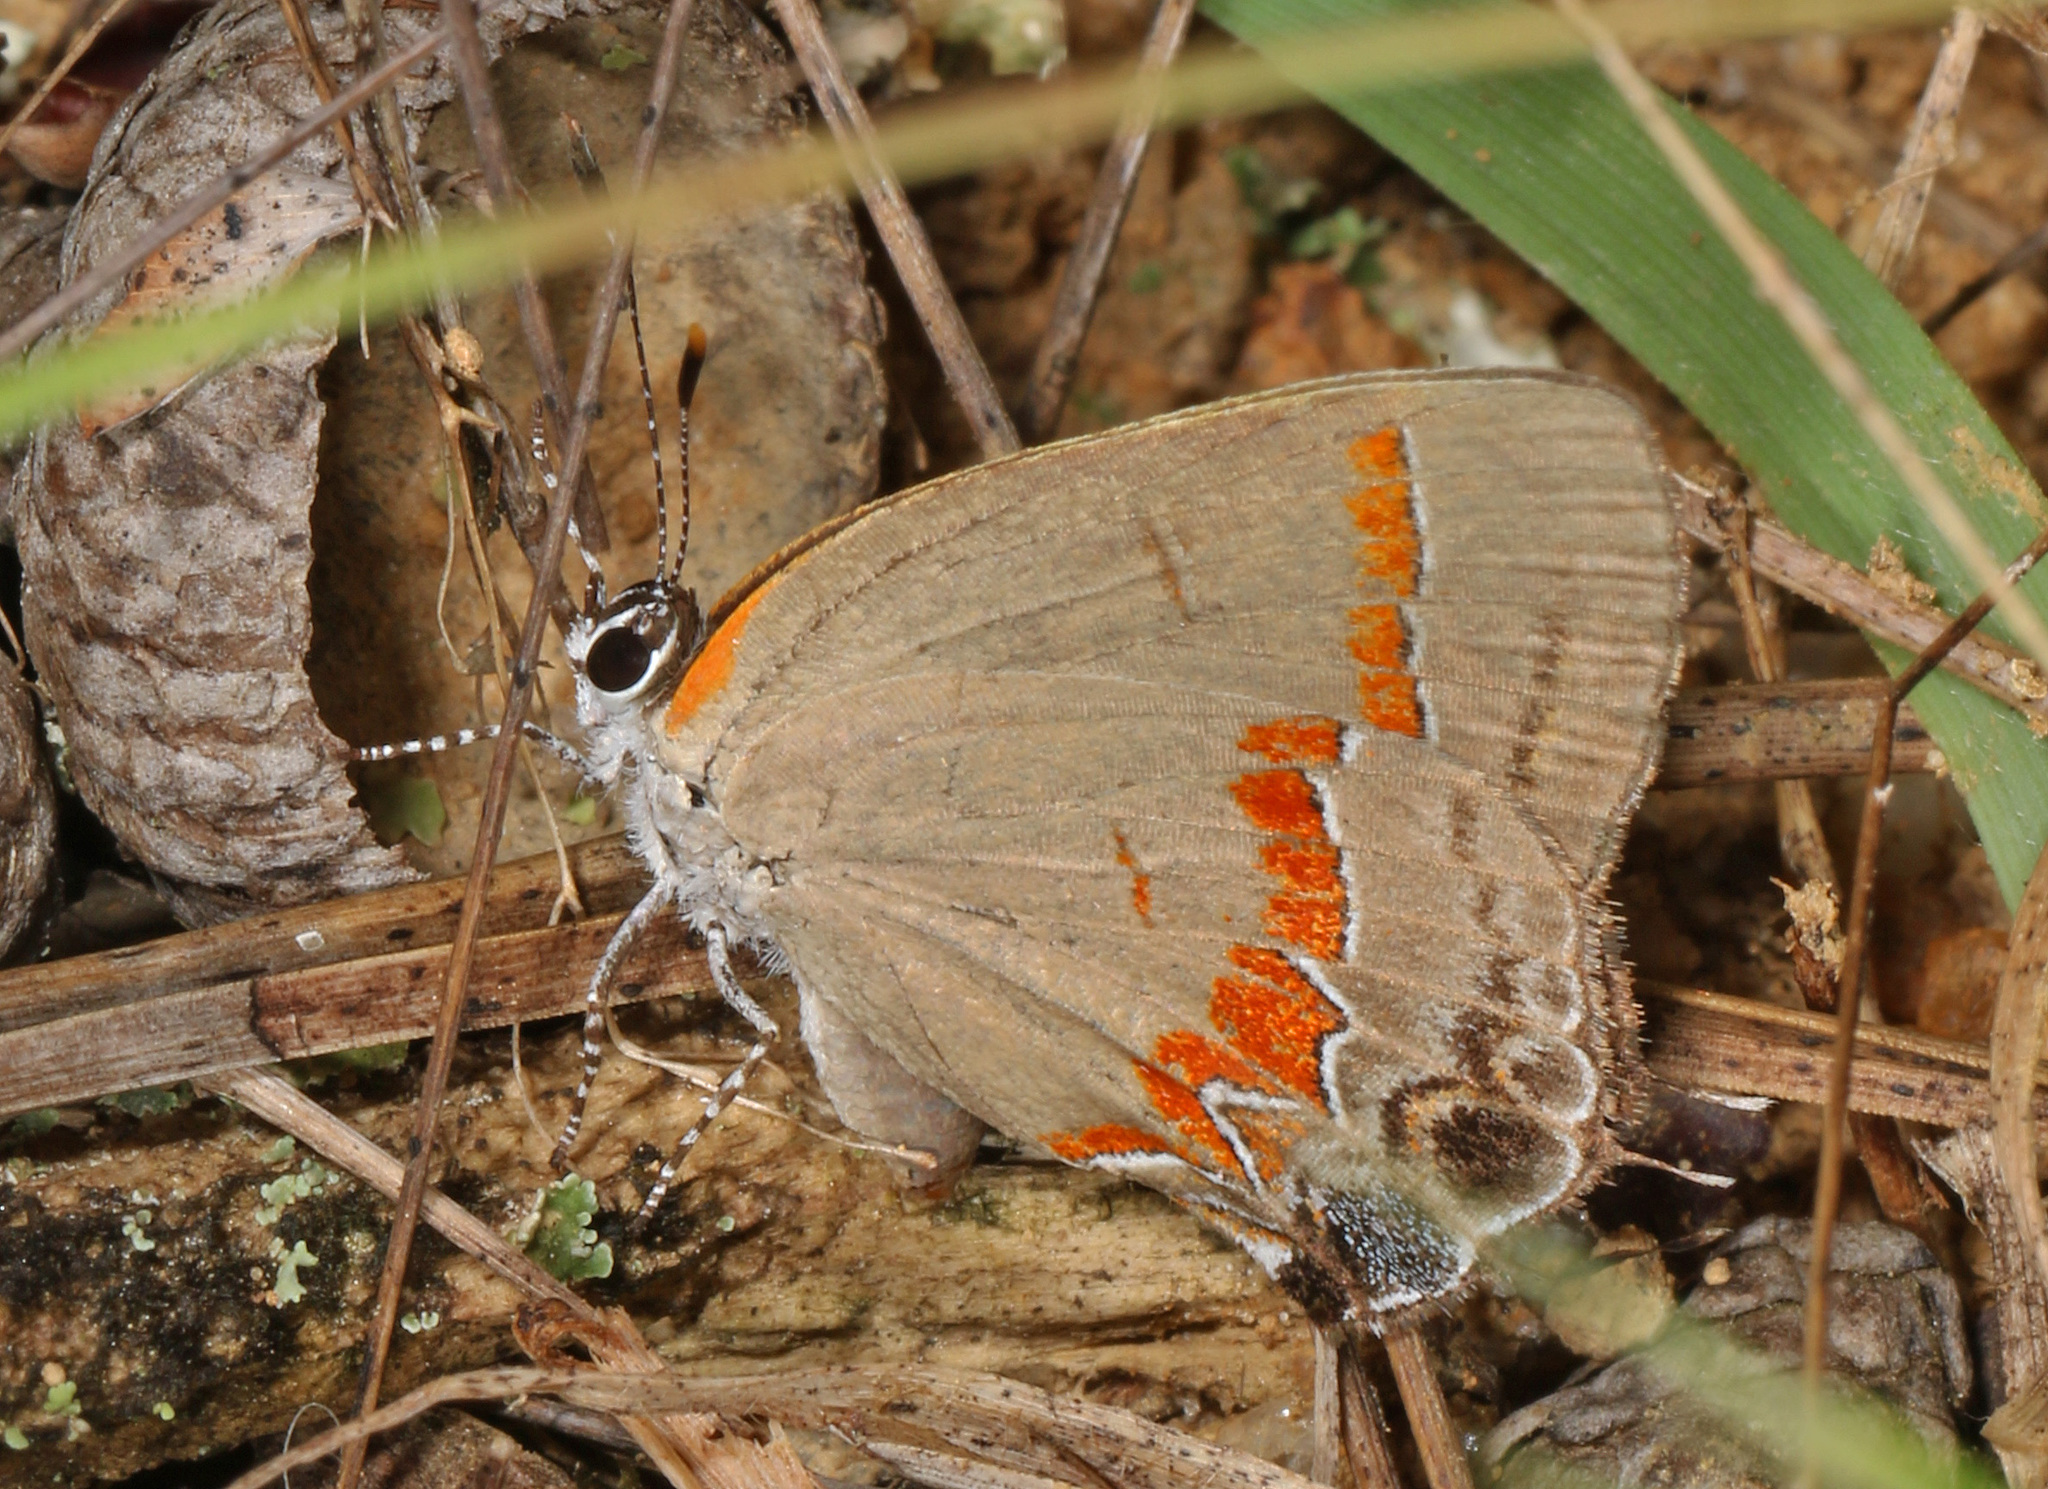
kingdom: Animalia
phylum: Arthropoda
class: Insecta
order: Lepidoptera
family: Lycaenidae
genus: Calycopis
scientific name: Calycopis cecrops
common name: Red-banded hairstreak
